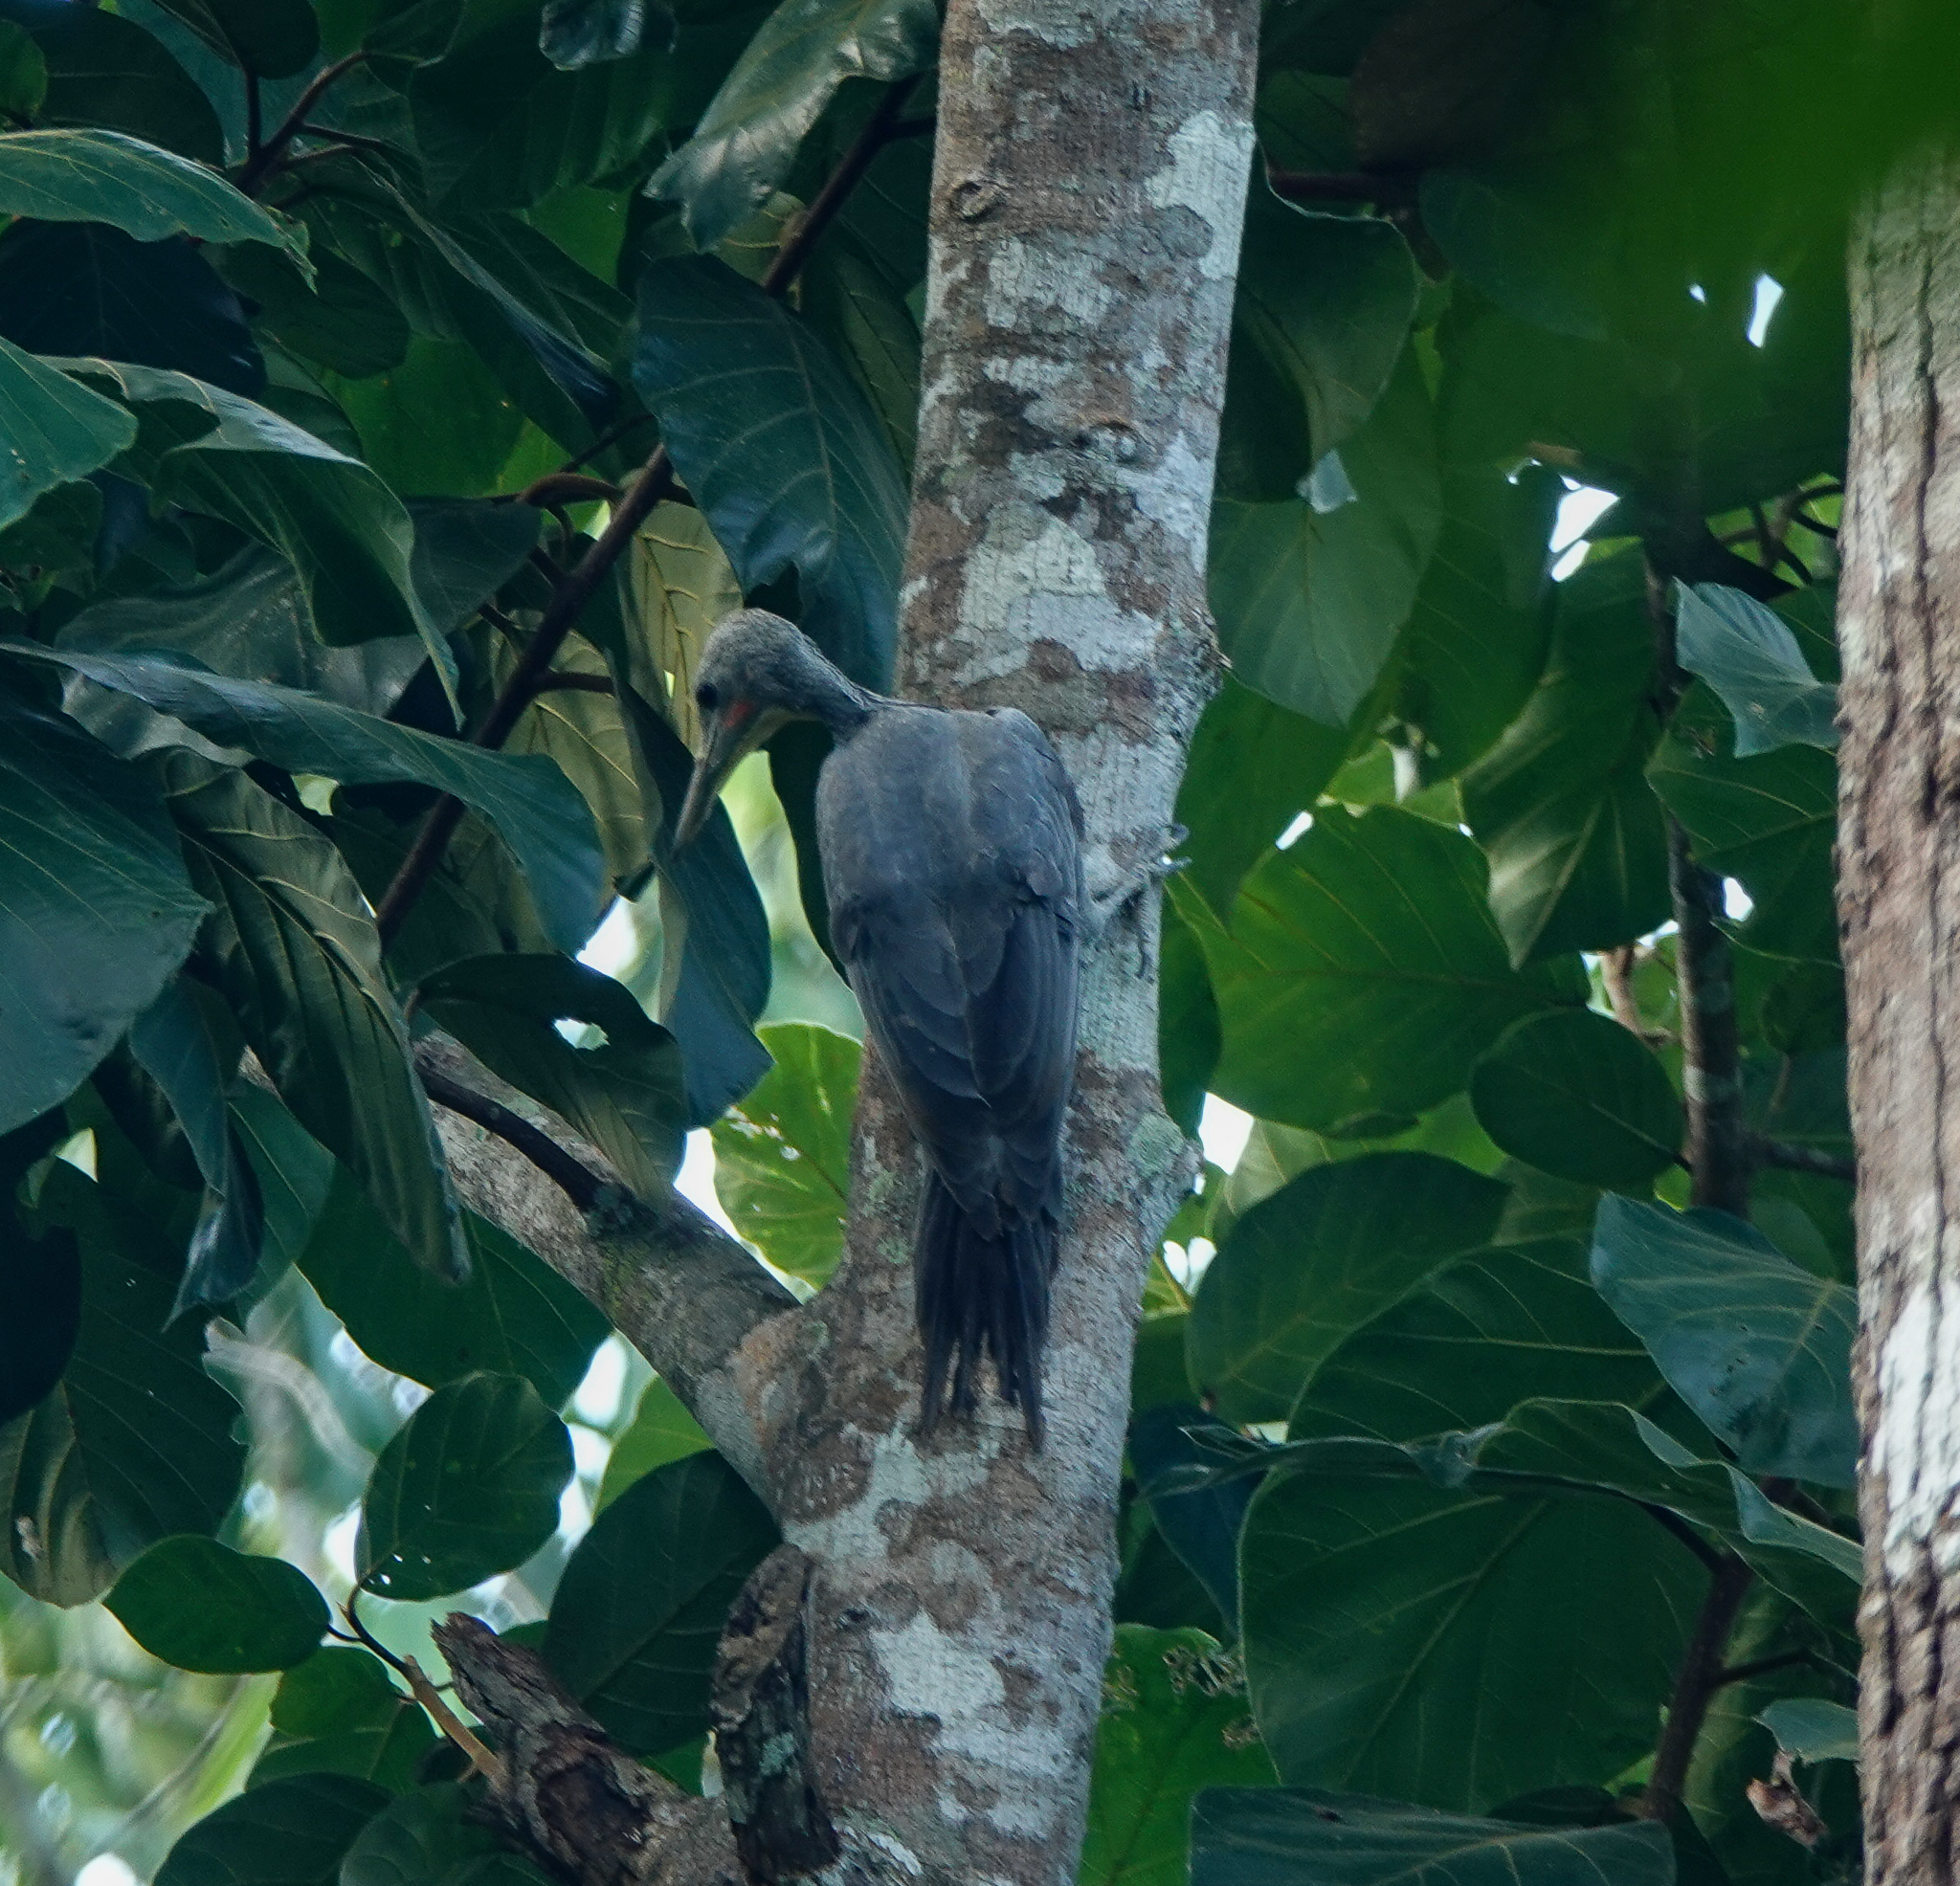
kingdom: Animalia
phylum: Chordata
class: Aves
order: Piciformes
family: Picidae
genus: Mulleripicus
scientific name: Mulleripicus pulverulentus
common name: Great slaty woodpecker
